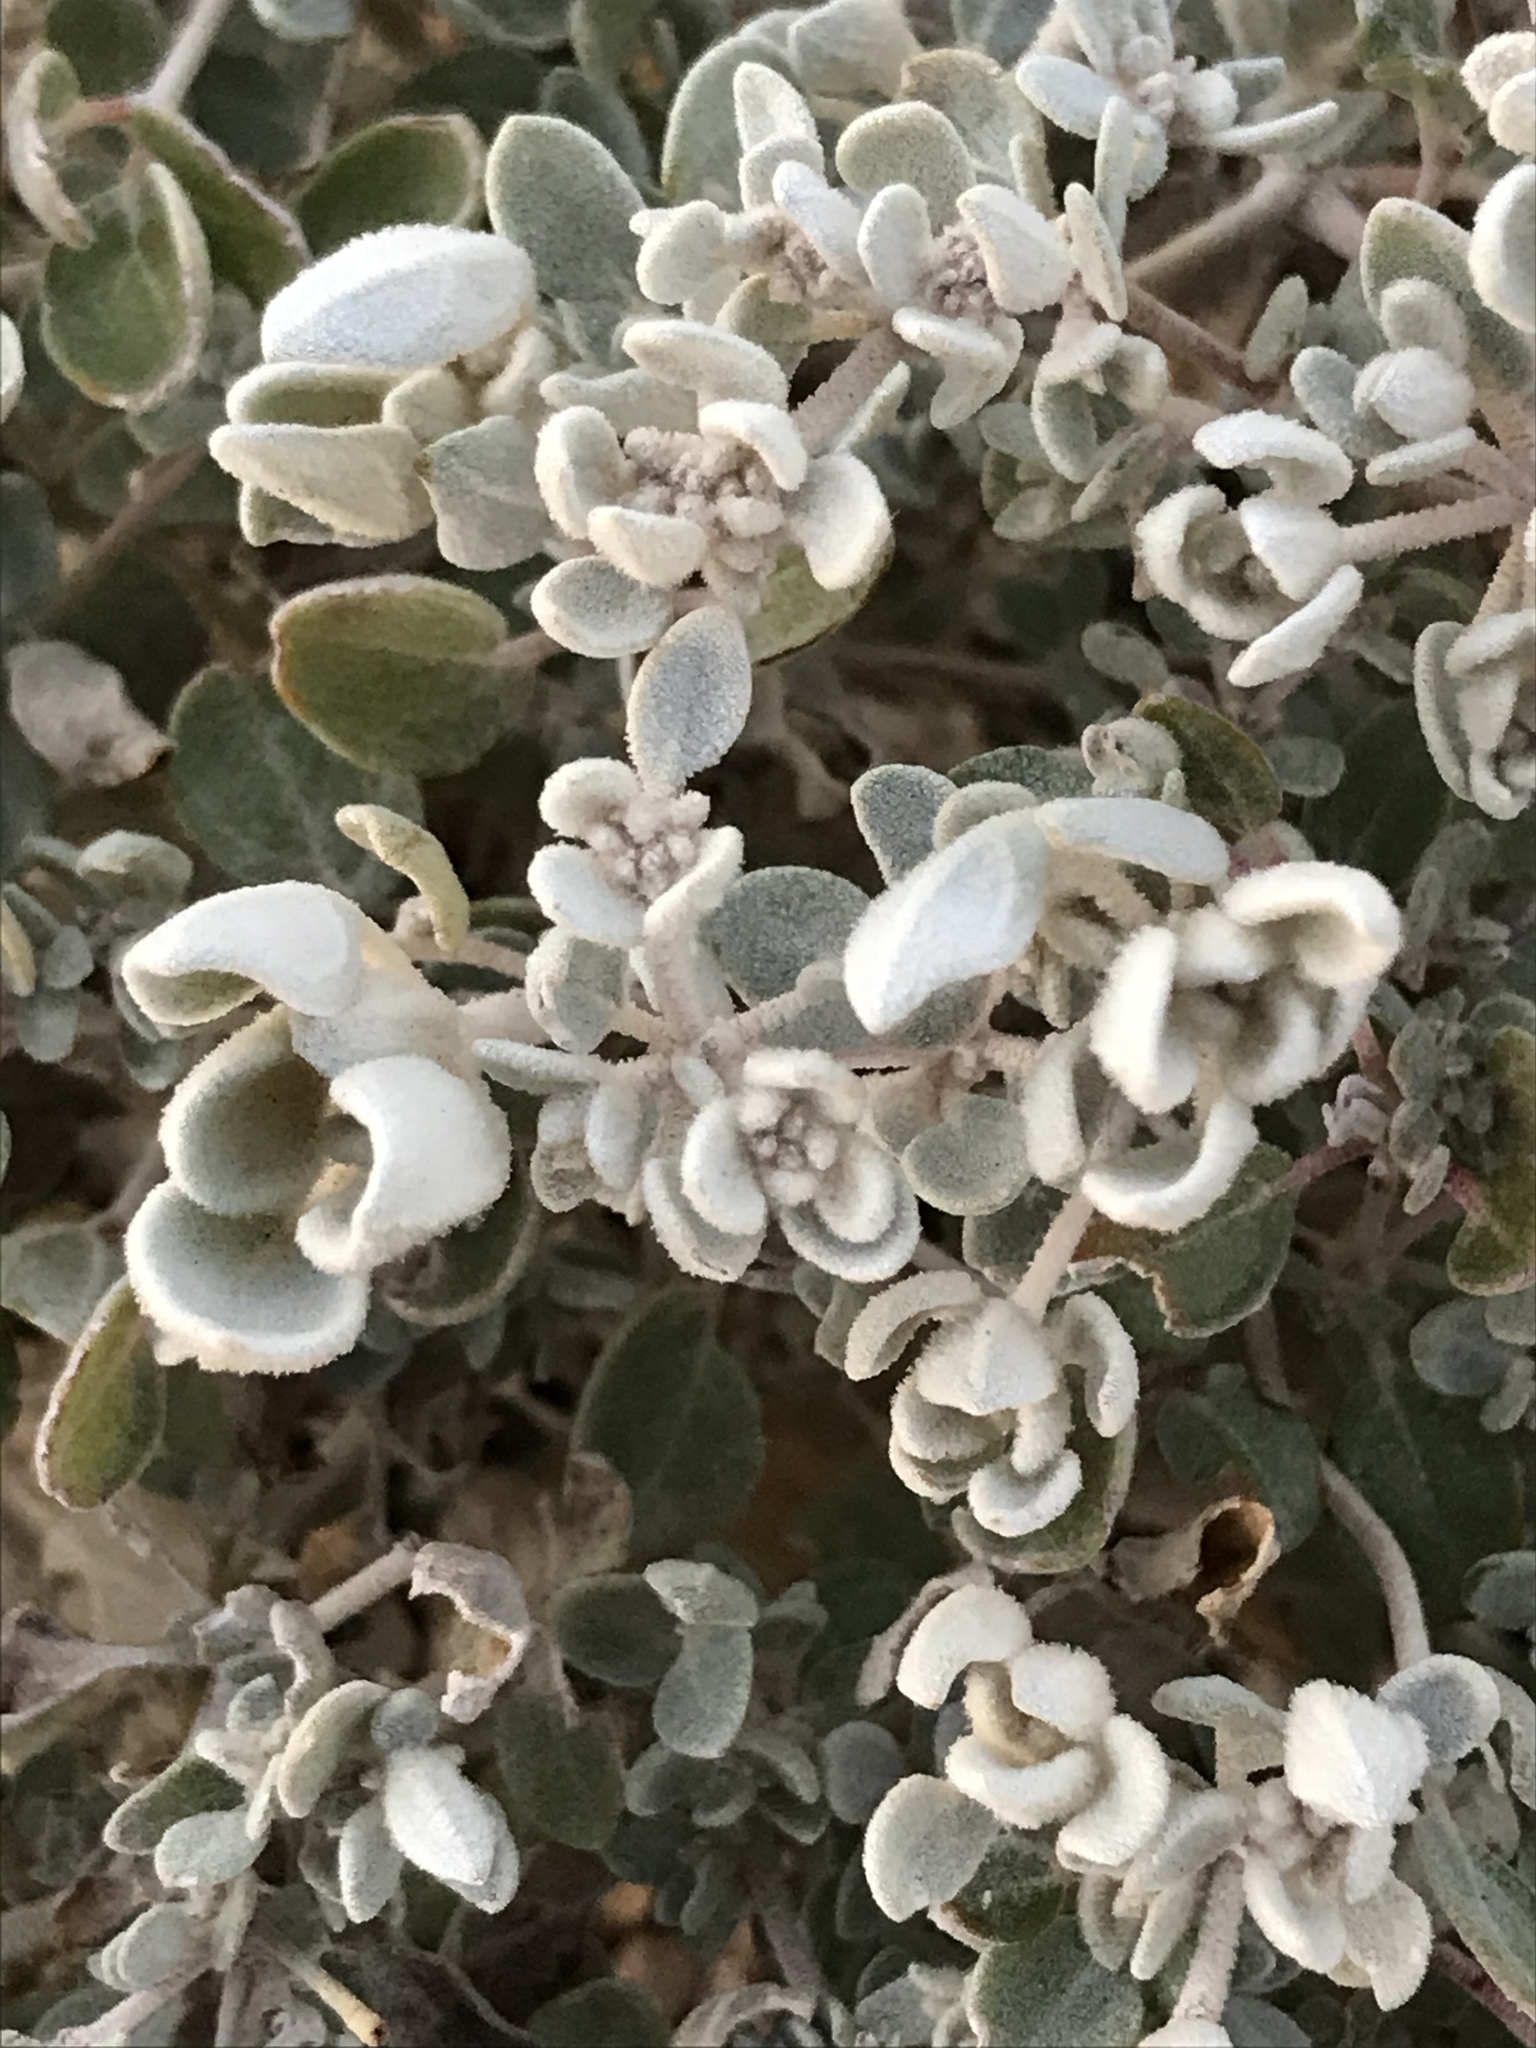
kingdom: Plantae
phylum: Tracheophyta
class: Magnoliopsida
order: Caryophyllales
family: Amaranthaceae
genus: Tidestromia
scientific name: Tidestromia suffruticosa
